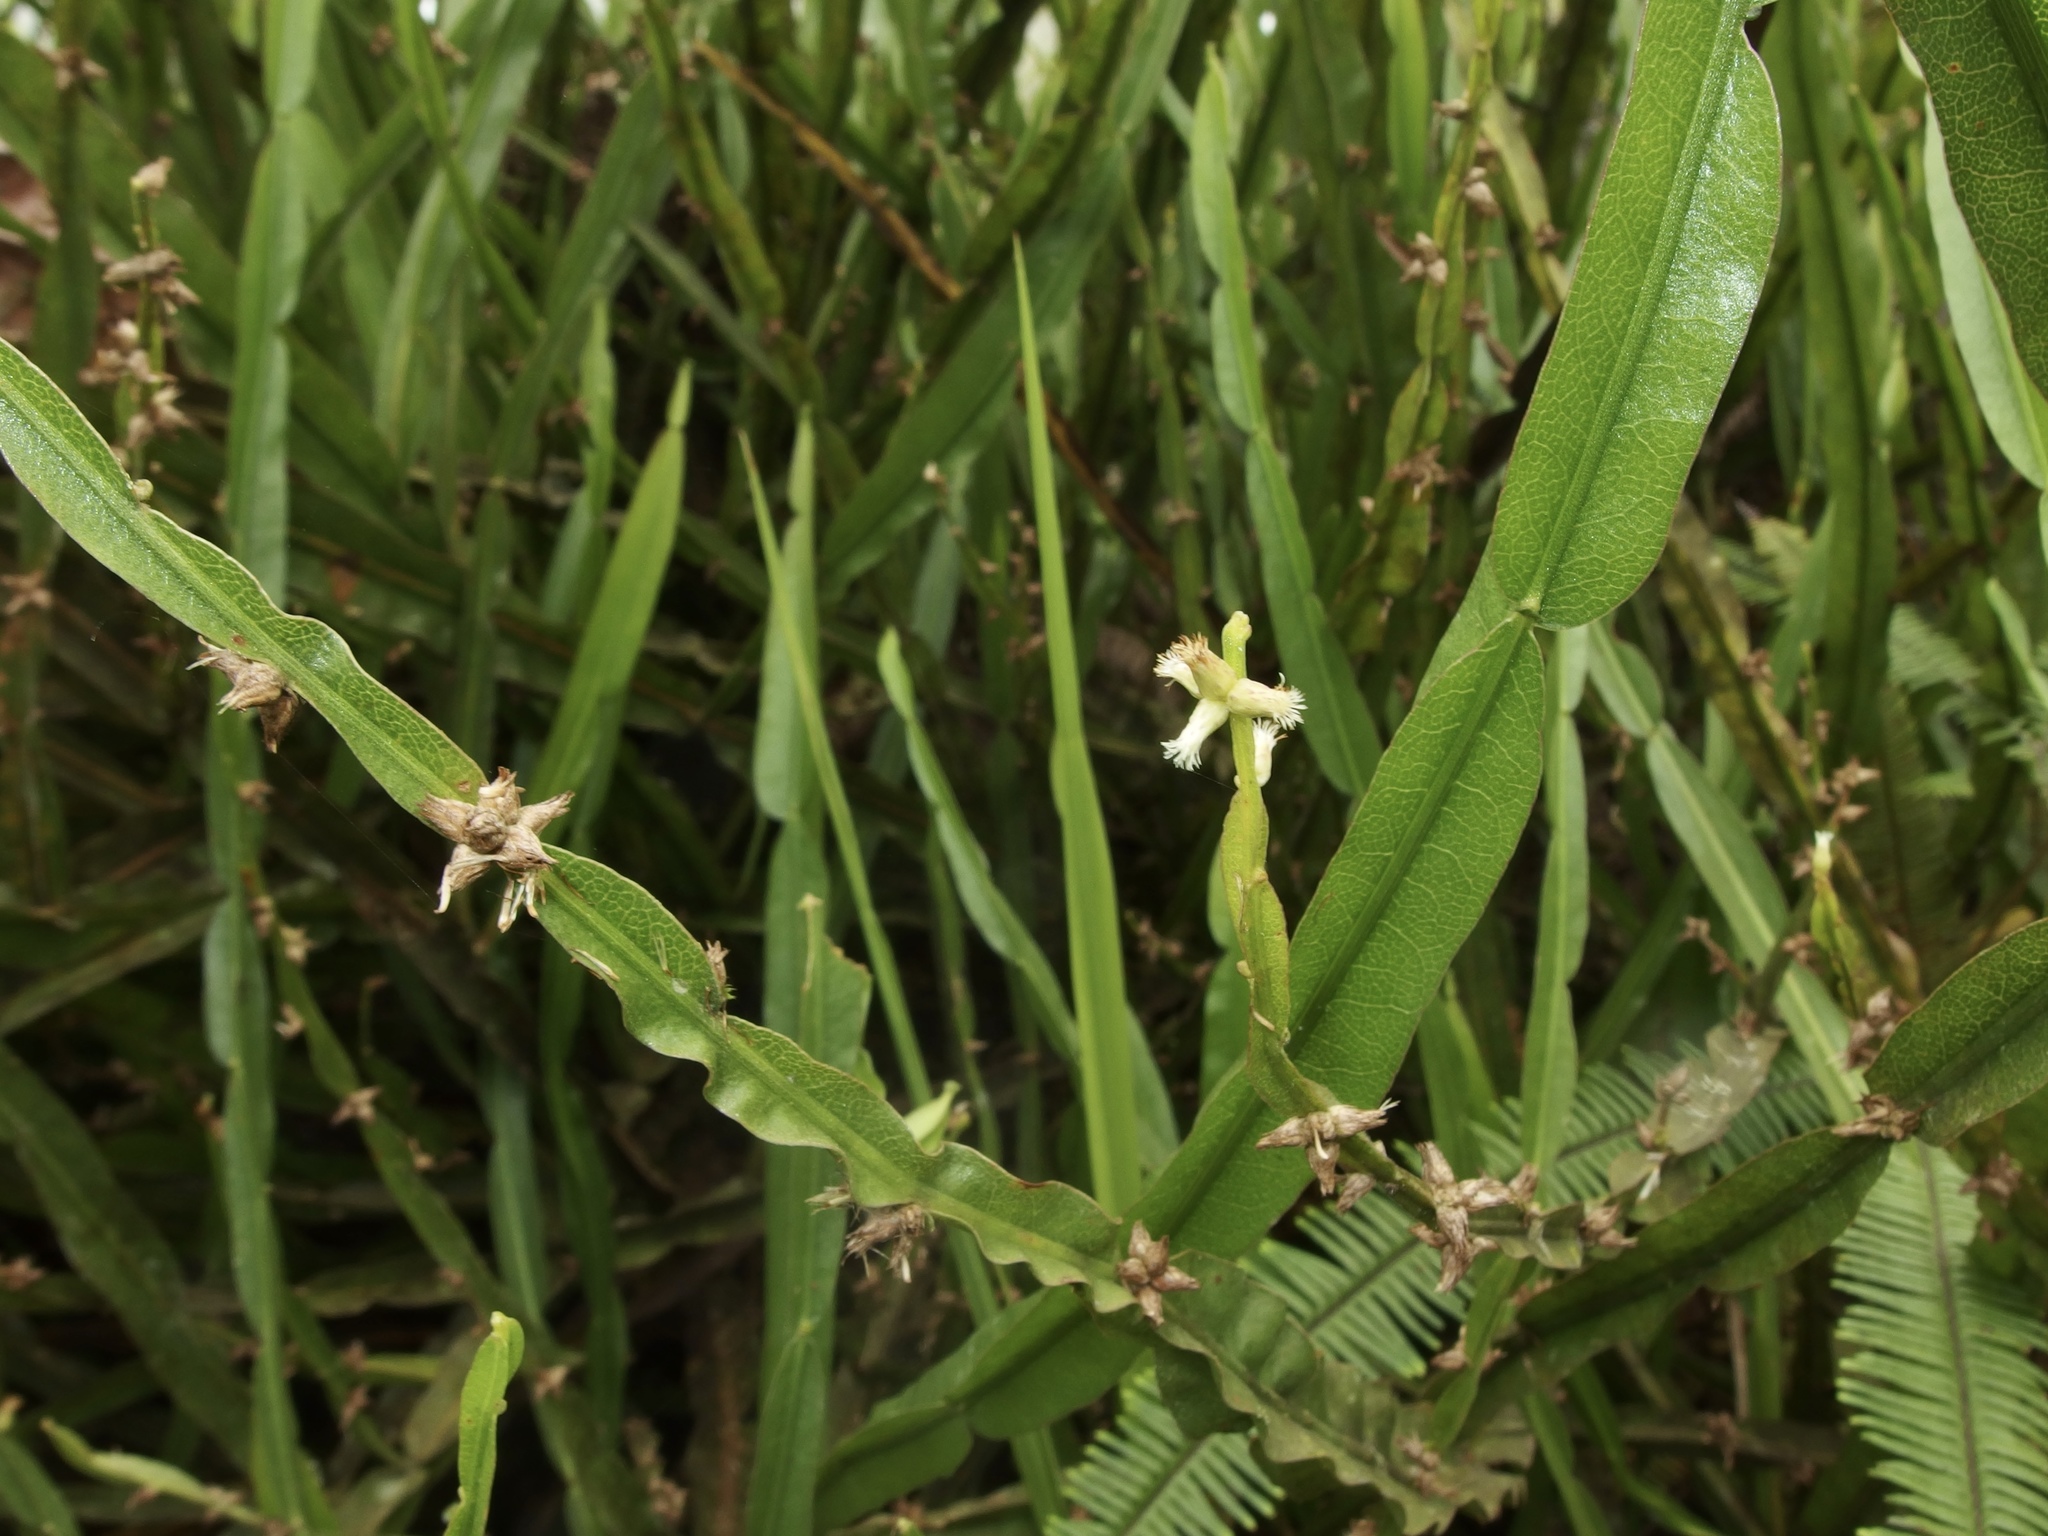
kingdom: Plantae
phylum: Tracheophyta
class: Magnoliopsida
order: Asterales
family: Asteraceae
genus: Baccharis
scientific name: Baccharis genistelloides
